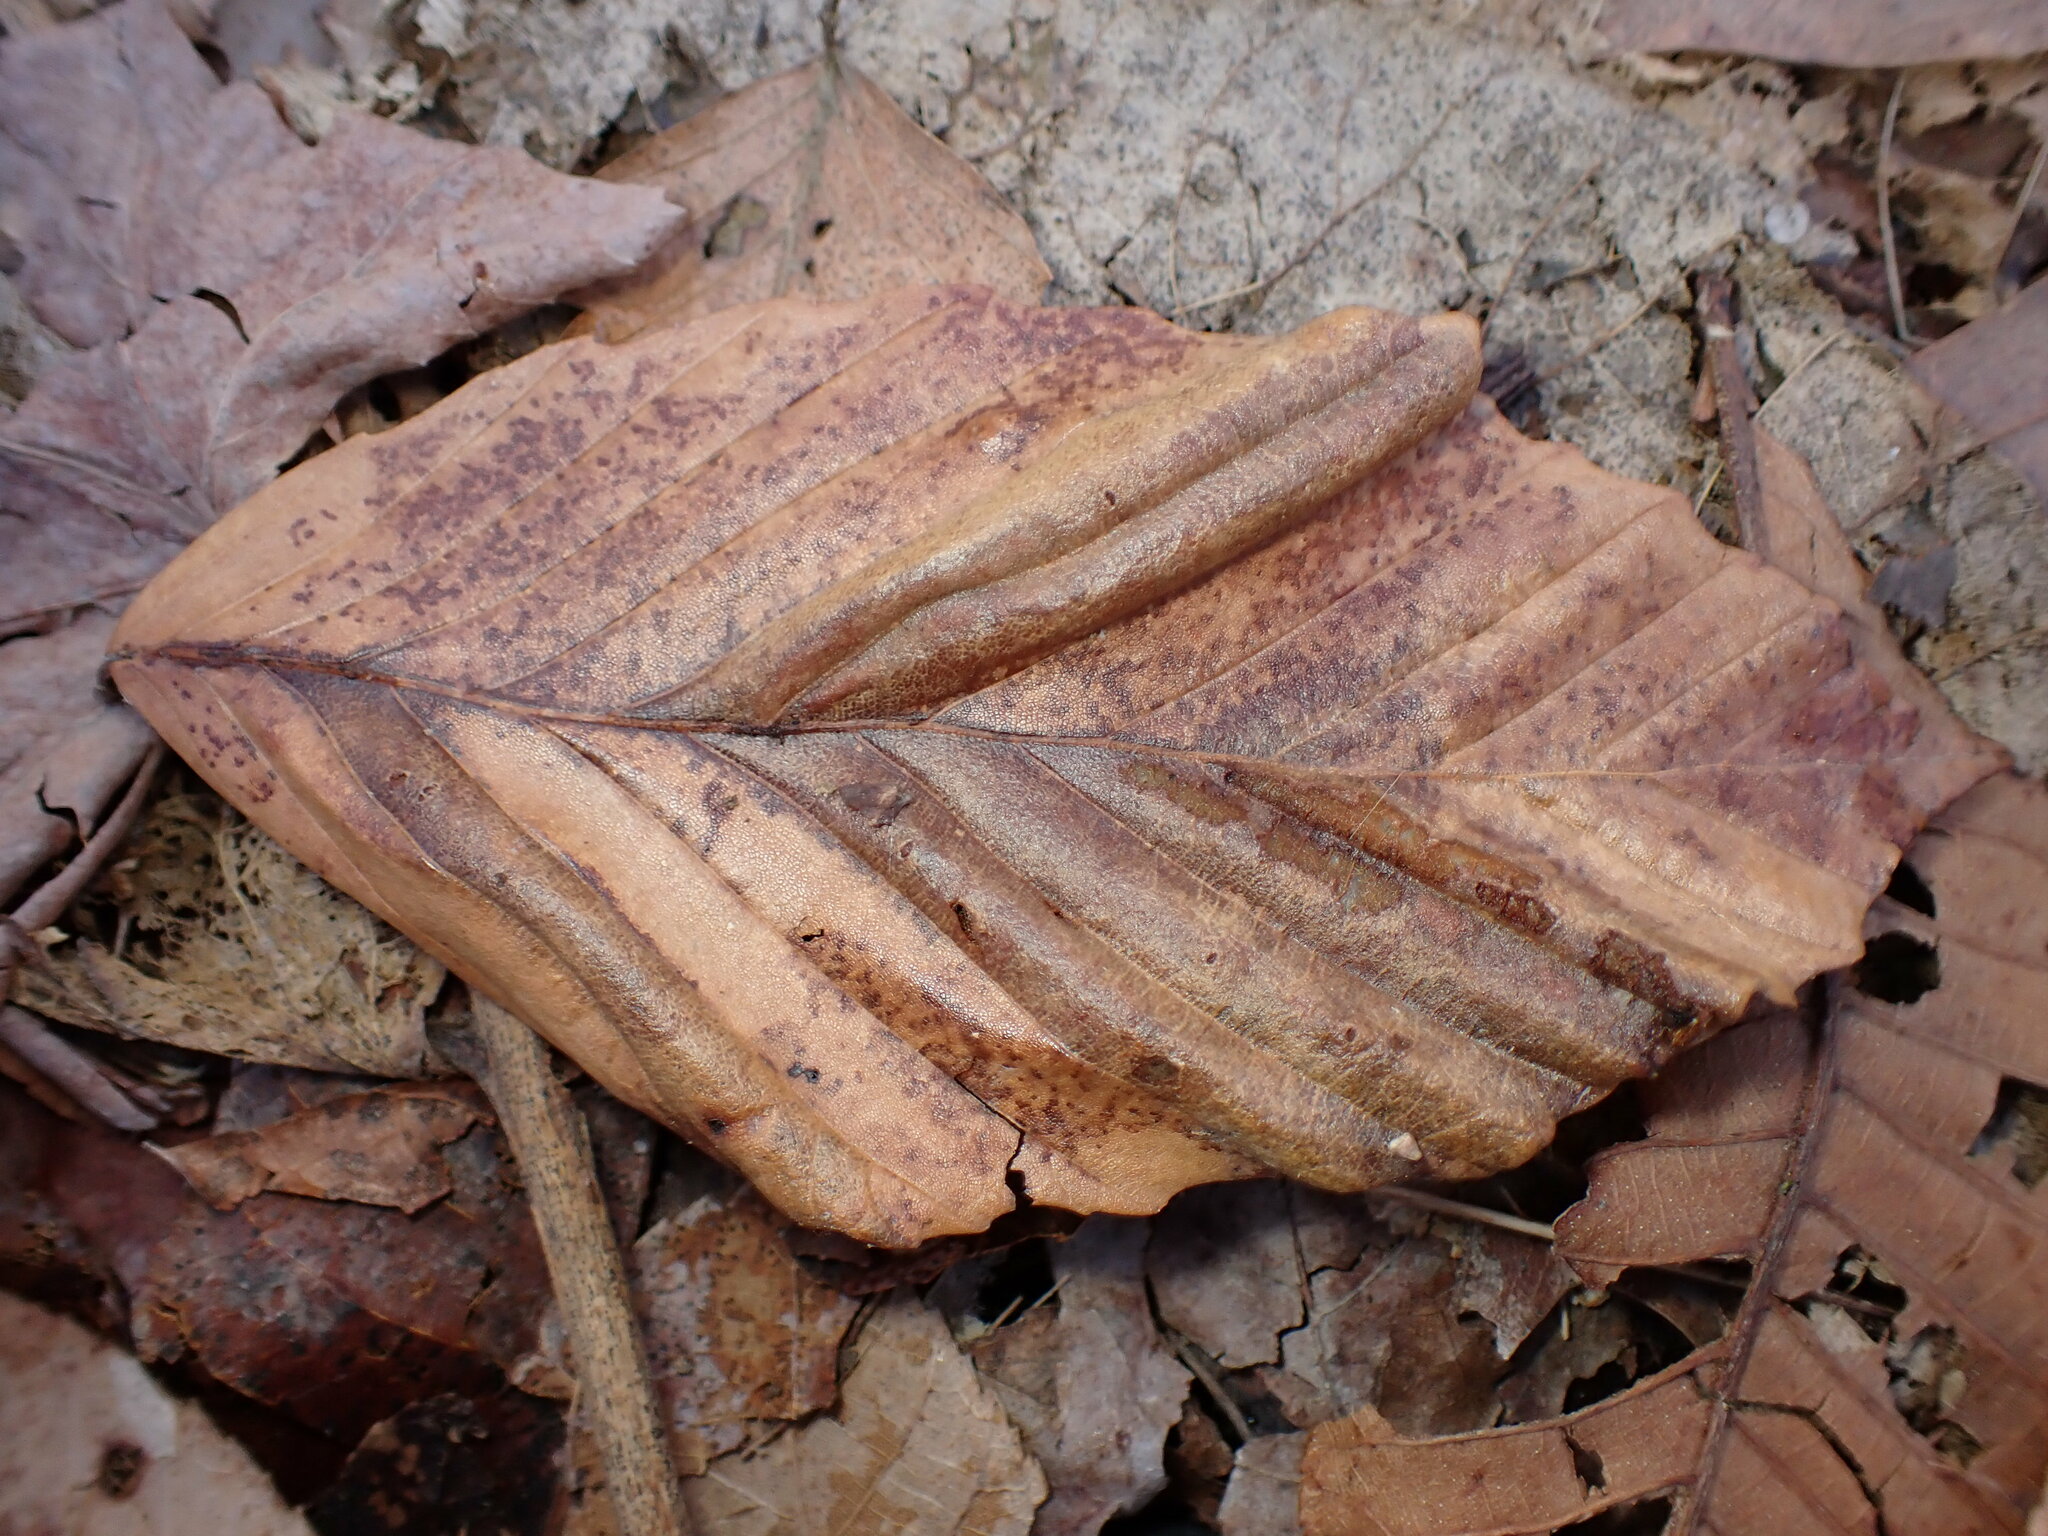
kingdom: Animalia
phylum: Nematoda
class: Chromadorea
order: Rhabditida
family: Anguinidae
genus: Litylenchus
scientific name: Litylenchus crenatae
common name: Beech leaf disease
